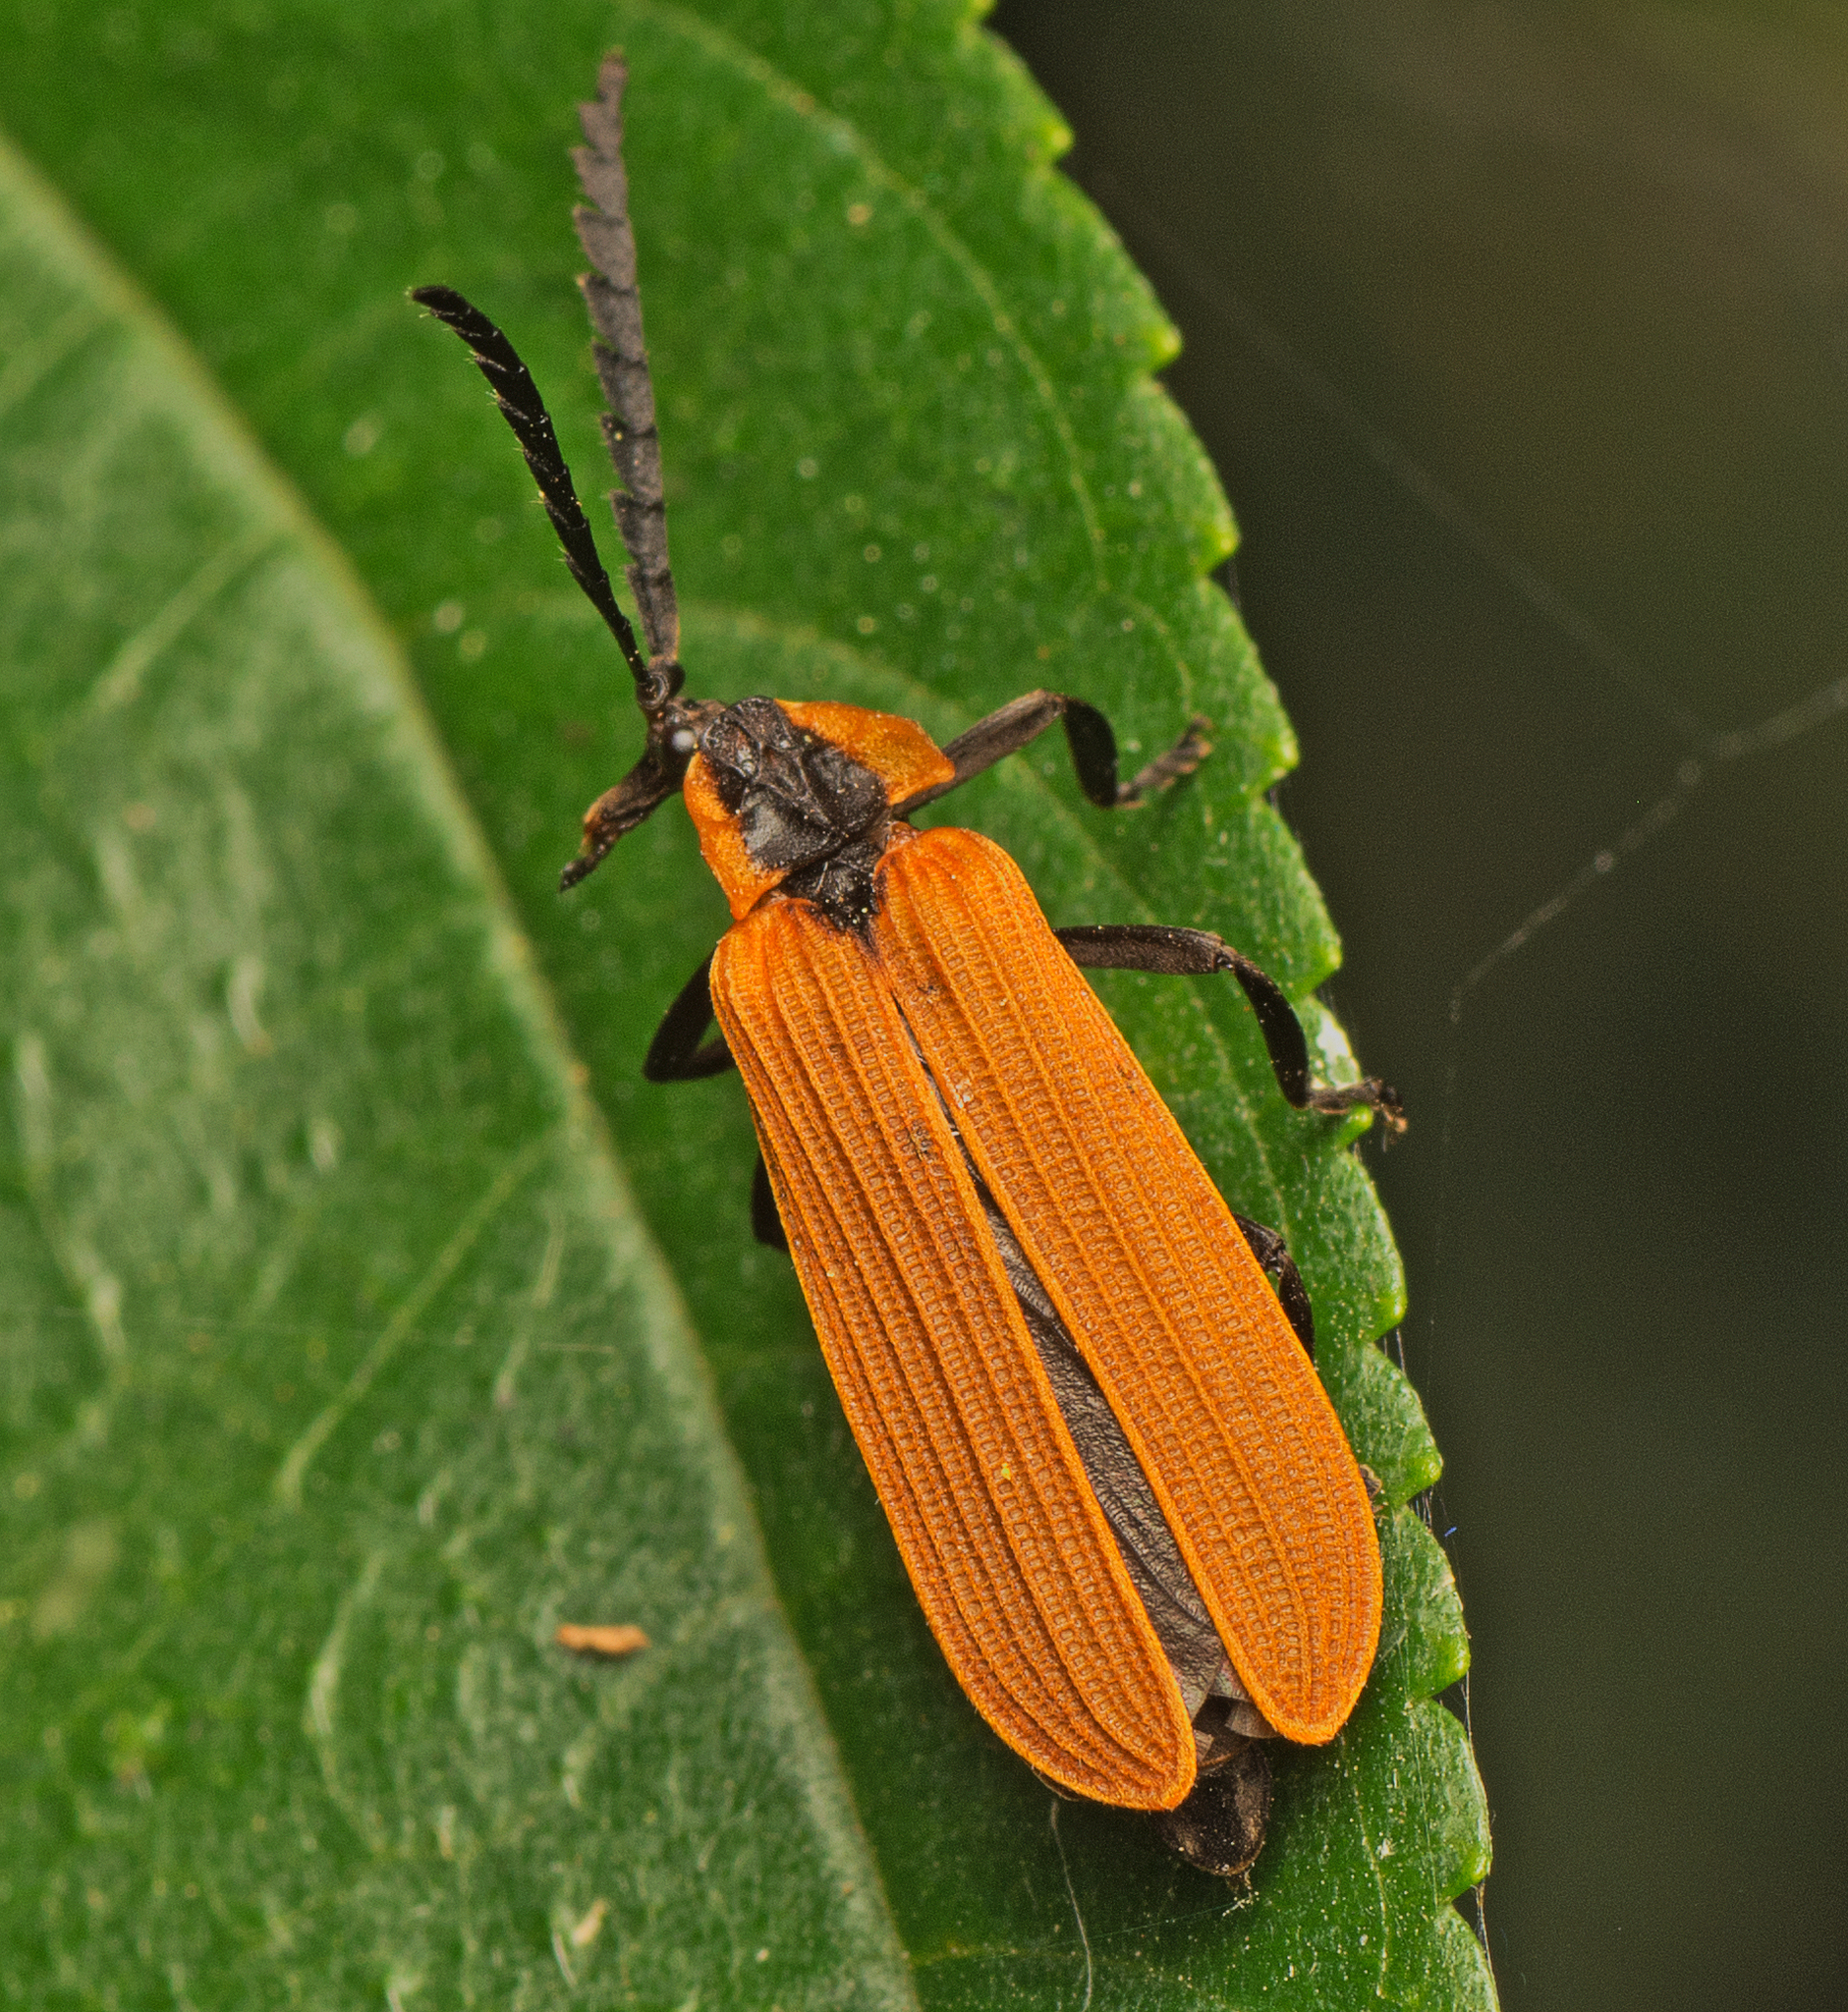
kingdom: Animalia
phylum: Arthropoda
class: Insecta
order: Coleoptera
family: Lycidae
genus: Porrostoma
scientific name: Porrostoma
